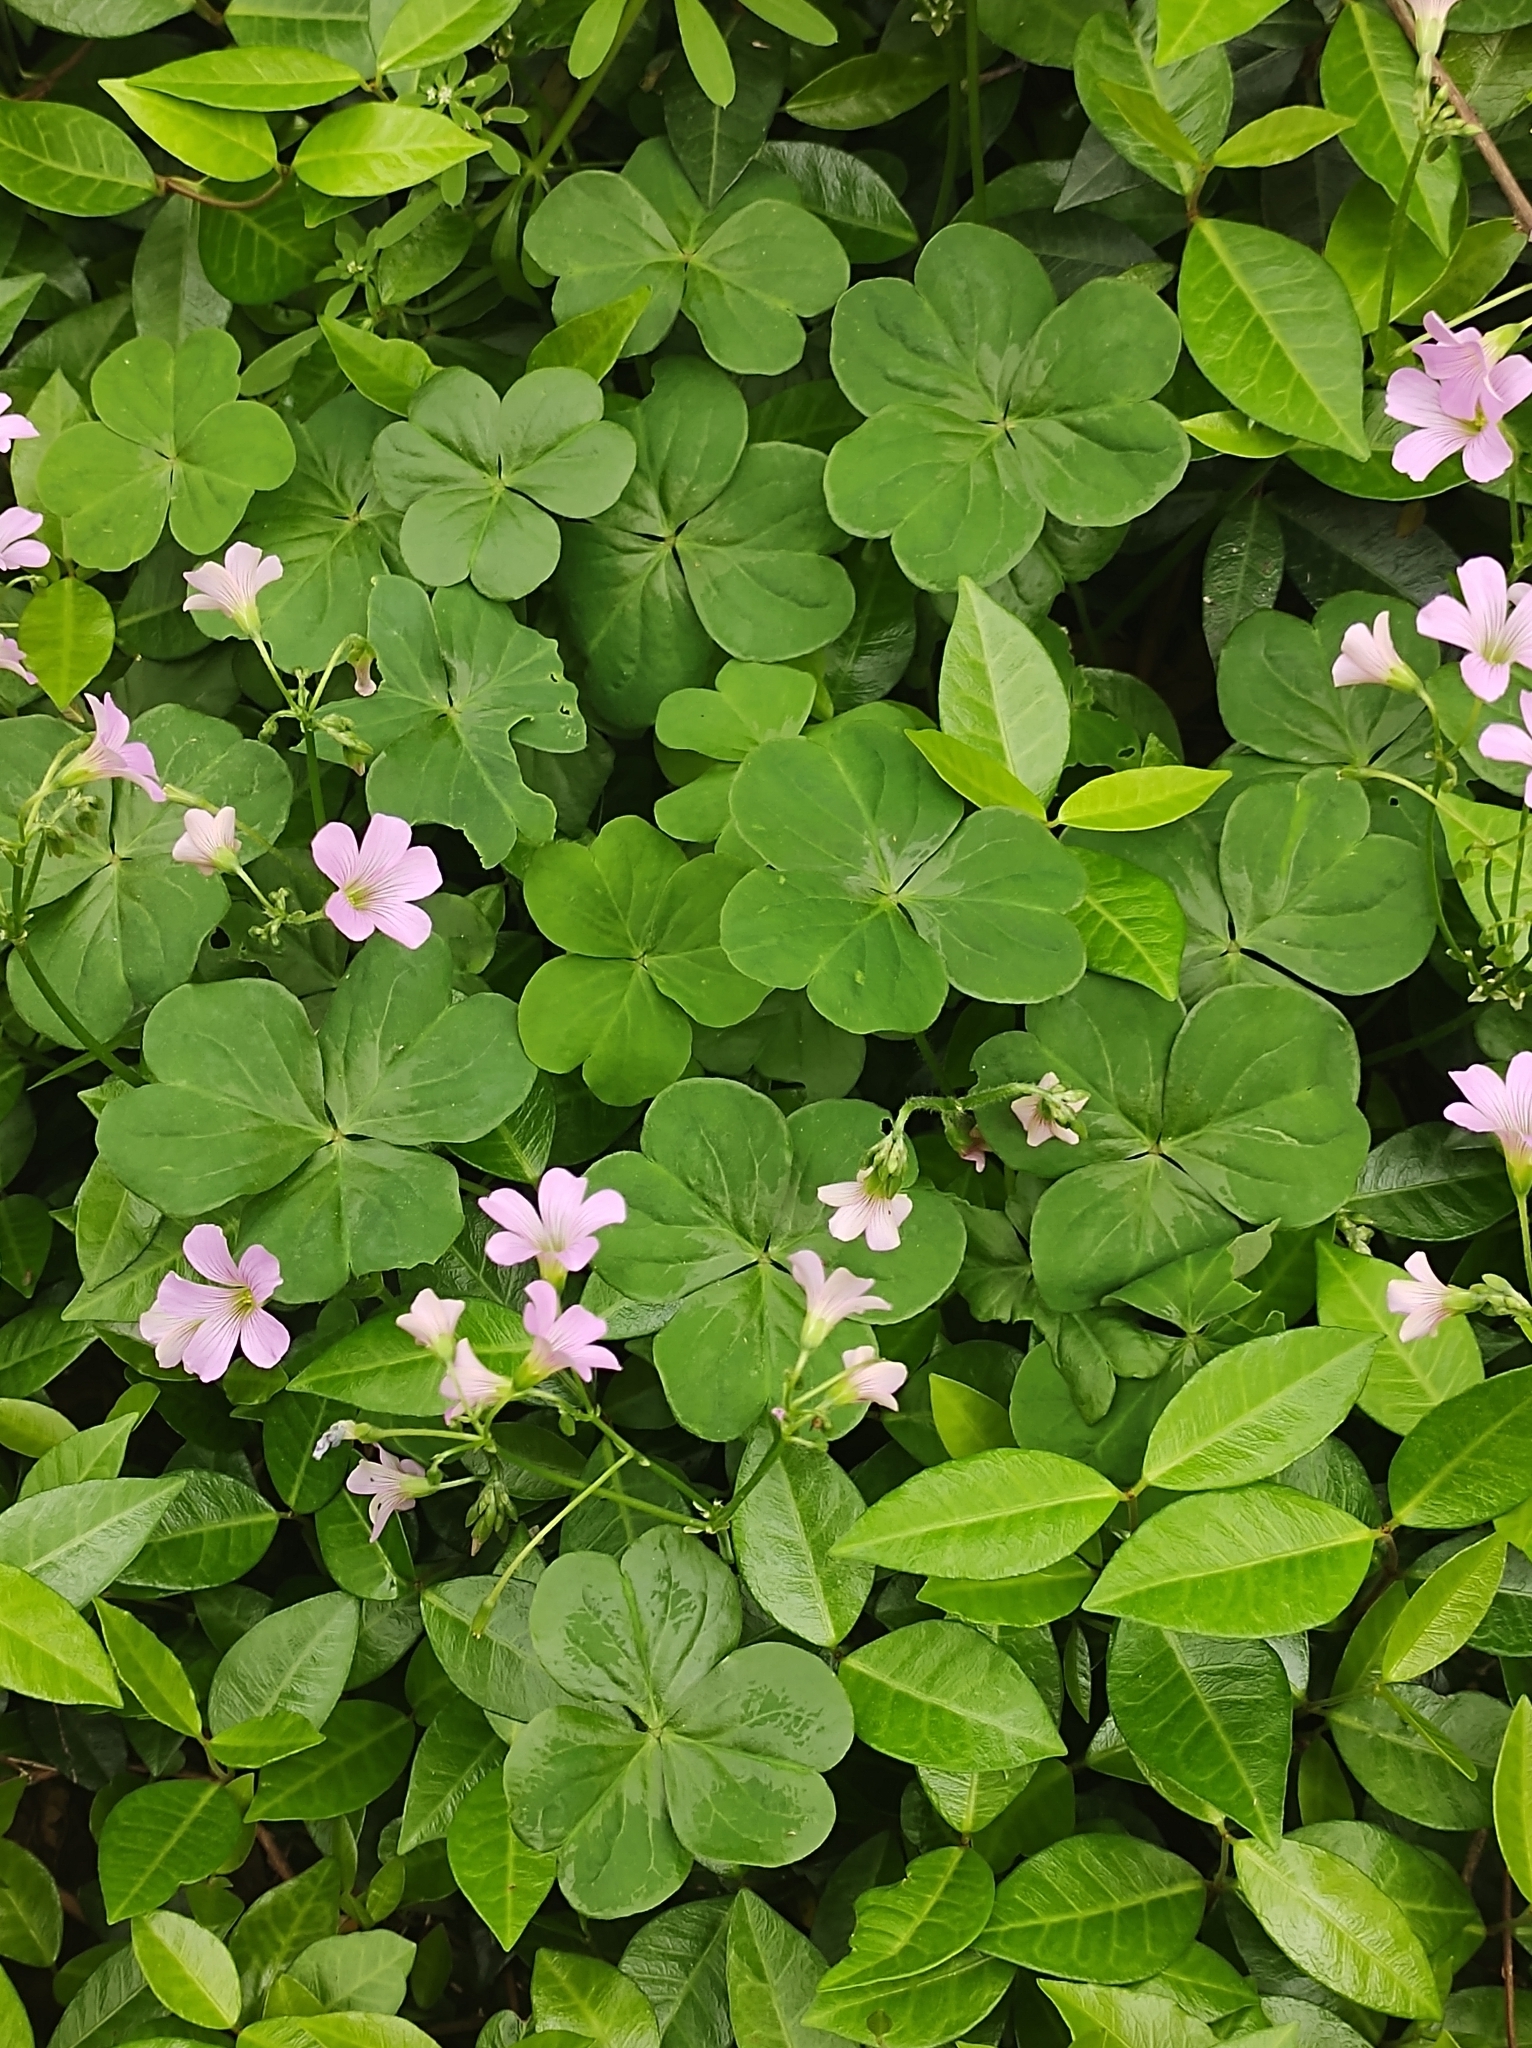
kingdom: Plantae
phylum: Tracheophyta
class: Magnoliopsida
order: Oxalidales
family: Oxalidaceae
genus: Oxalis
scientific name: Oxalis debilis
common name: Large-flowered pink-sorrel
